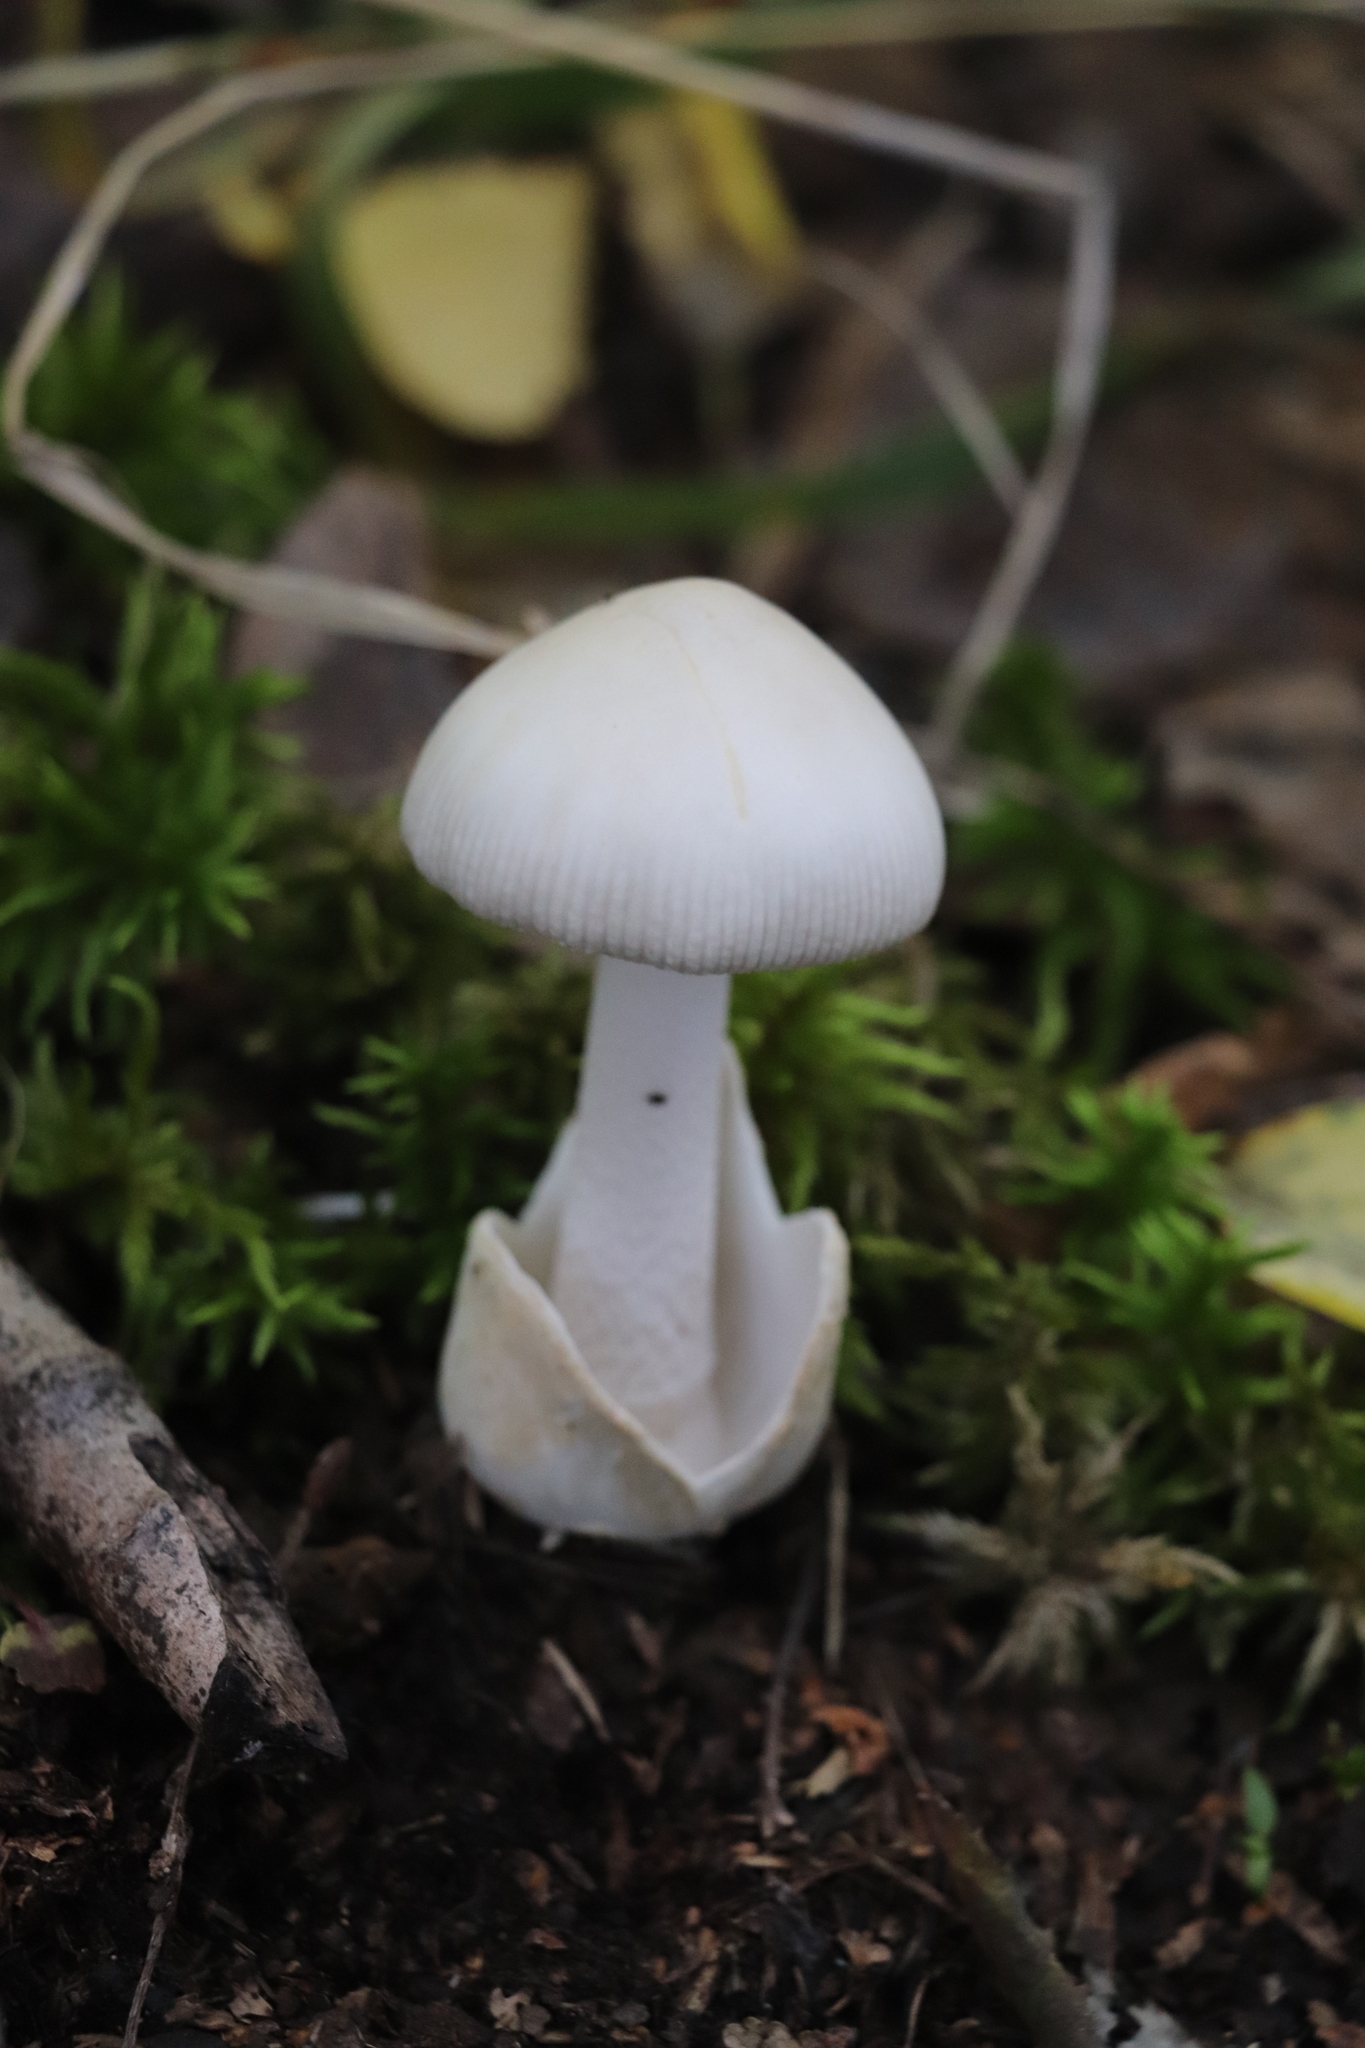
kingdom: Fungi
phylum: Basidiomycota
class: Agaricomycetes
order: Agaricales
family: Amanitaceae
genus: Amanita
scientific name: Amanita vaginata
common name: Grisette
